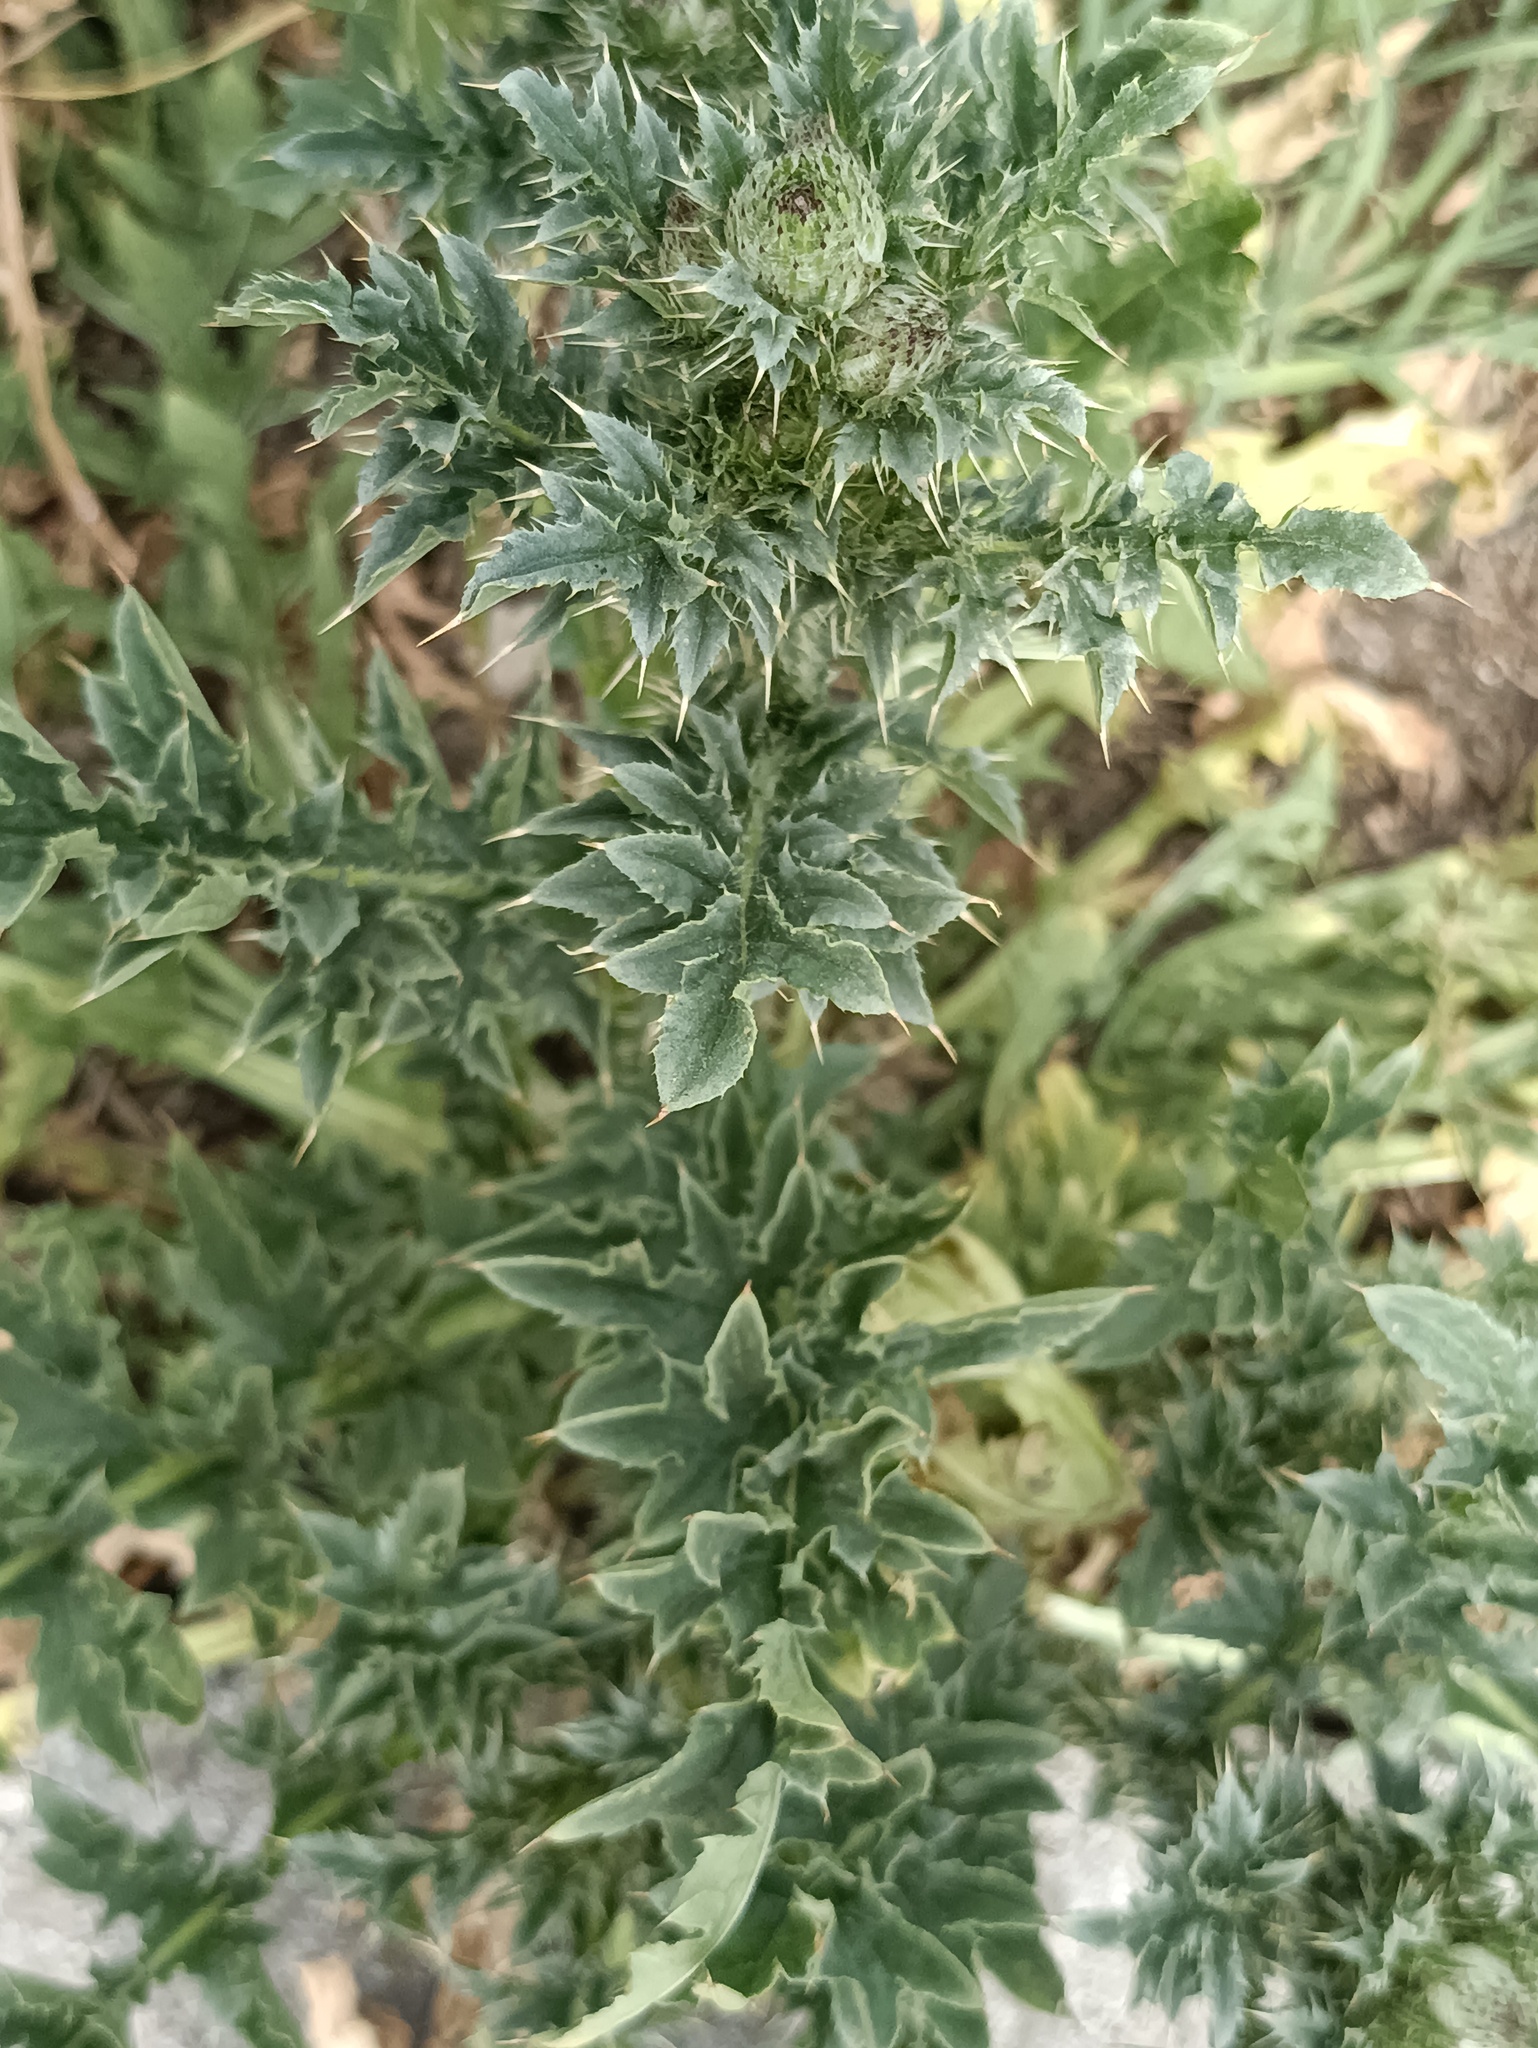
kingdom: Plantae
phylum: Tracheophyta
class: Magnoliopsida
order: Asterales
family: Asteraceae
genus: Carduus
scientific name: Carduus acanthoides
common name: Plumeless thistle
